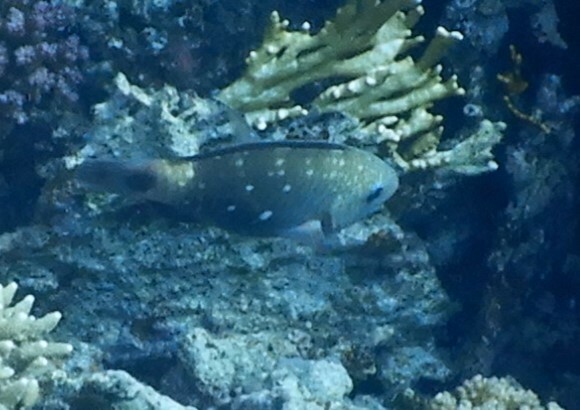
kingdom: Animalia
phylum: Chordata
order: Perciformes
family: Scaridae
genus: Chlorurus
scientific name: Chlorurus sordidus
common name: Bullethead parrotfish
